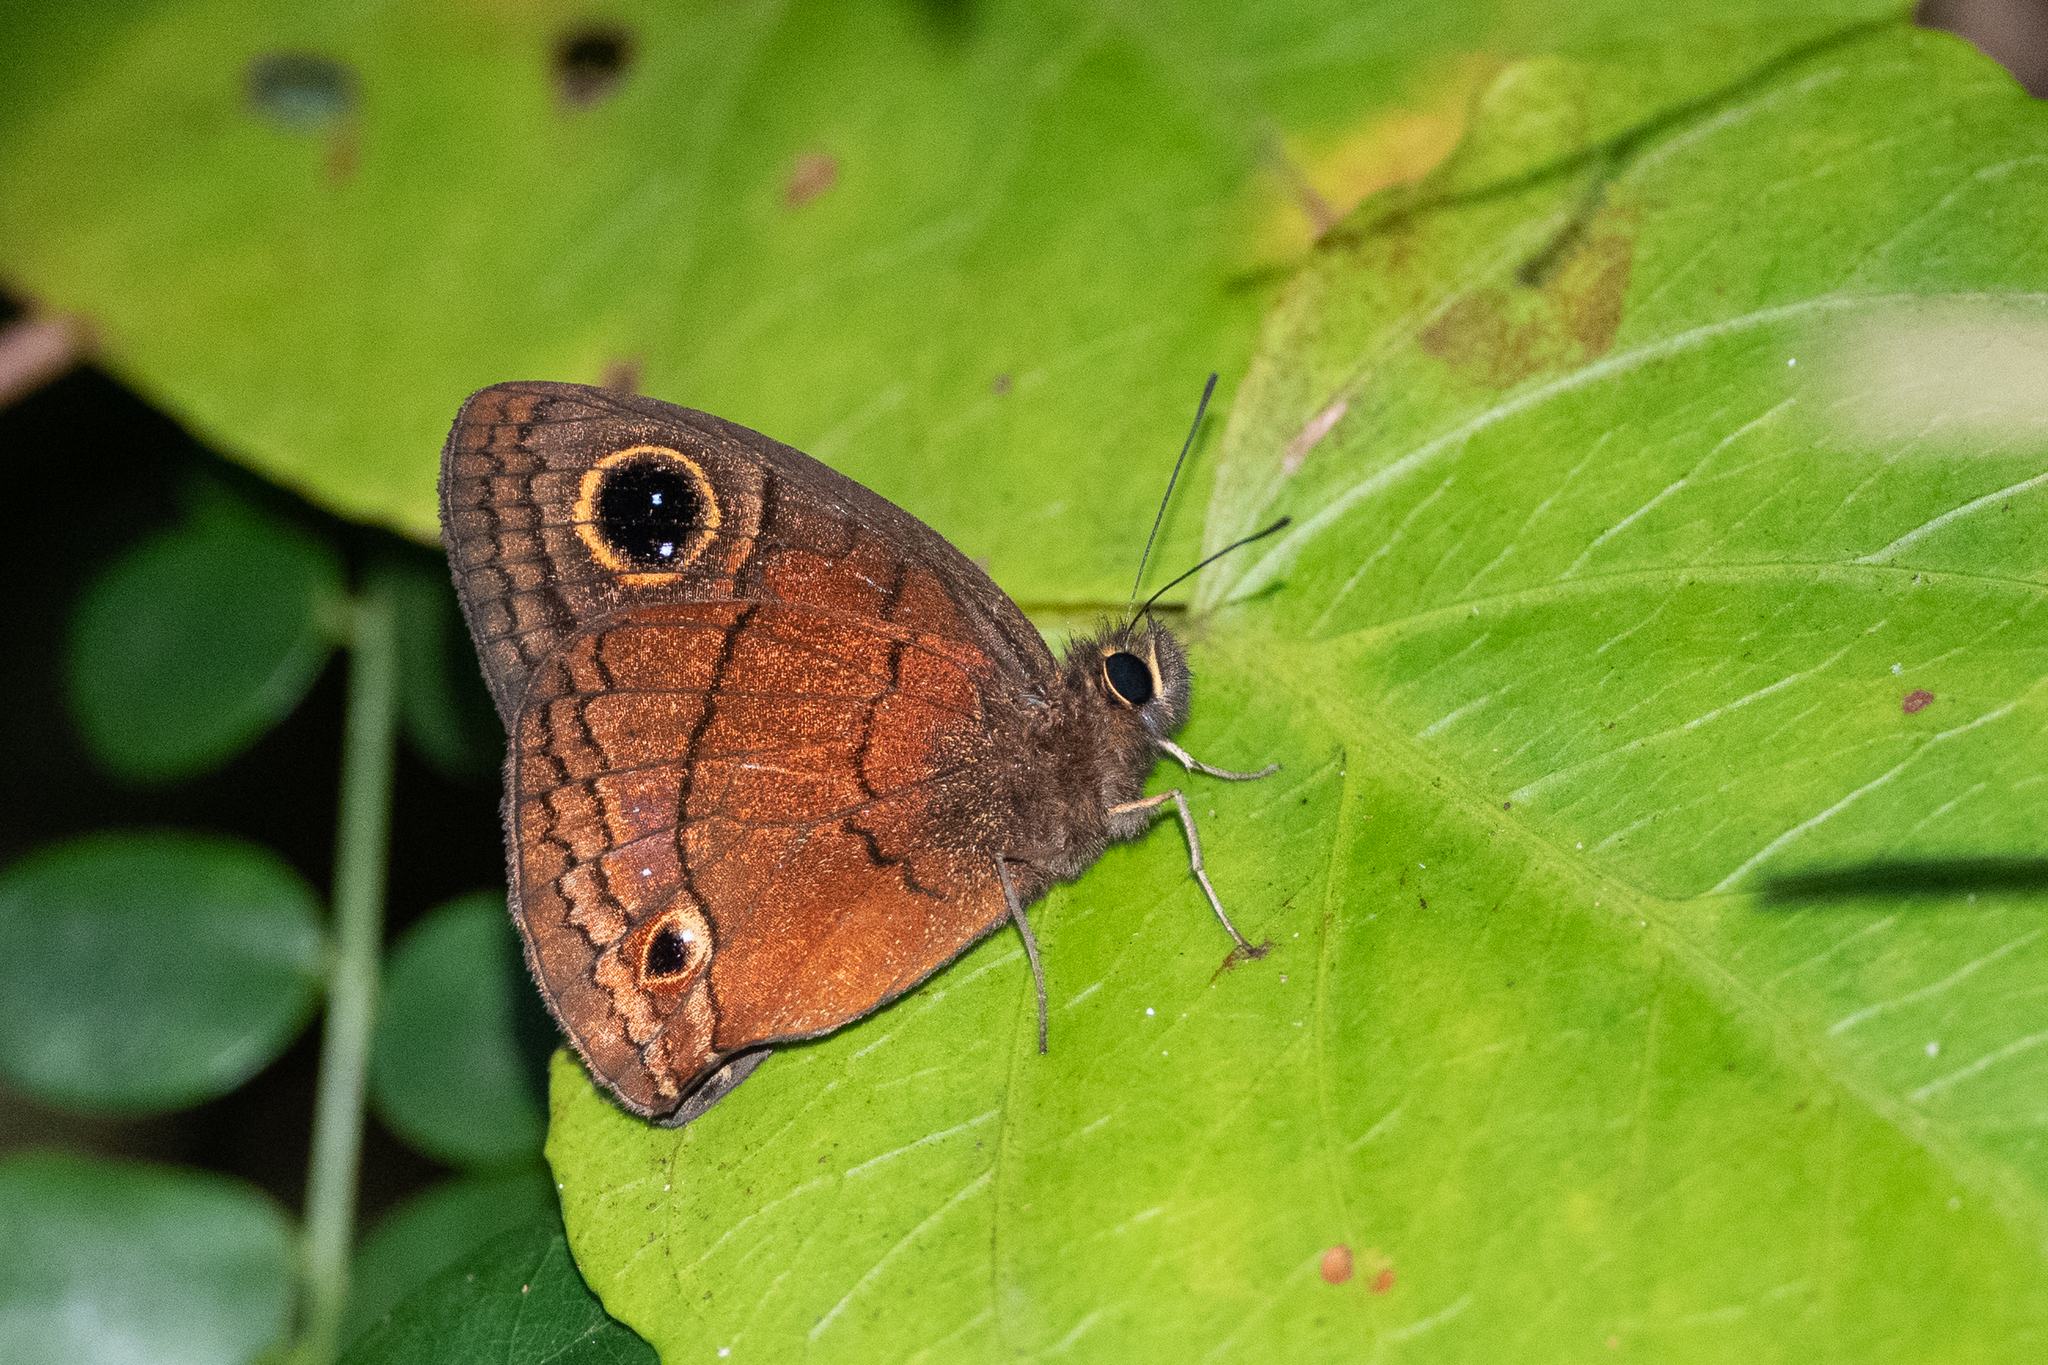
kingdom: Animalia
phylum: Arthropoda
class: Insecta
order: Lepidoptera
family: Nymphalidae
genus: Calisto
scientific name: Calisto nubila
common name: Puerto rican calisto
